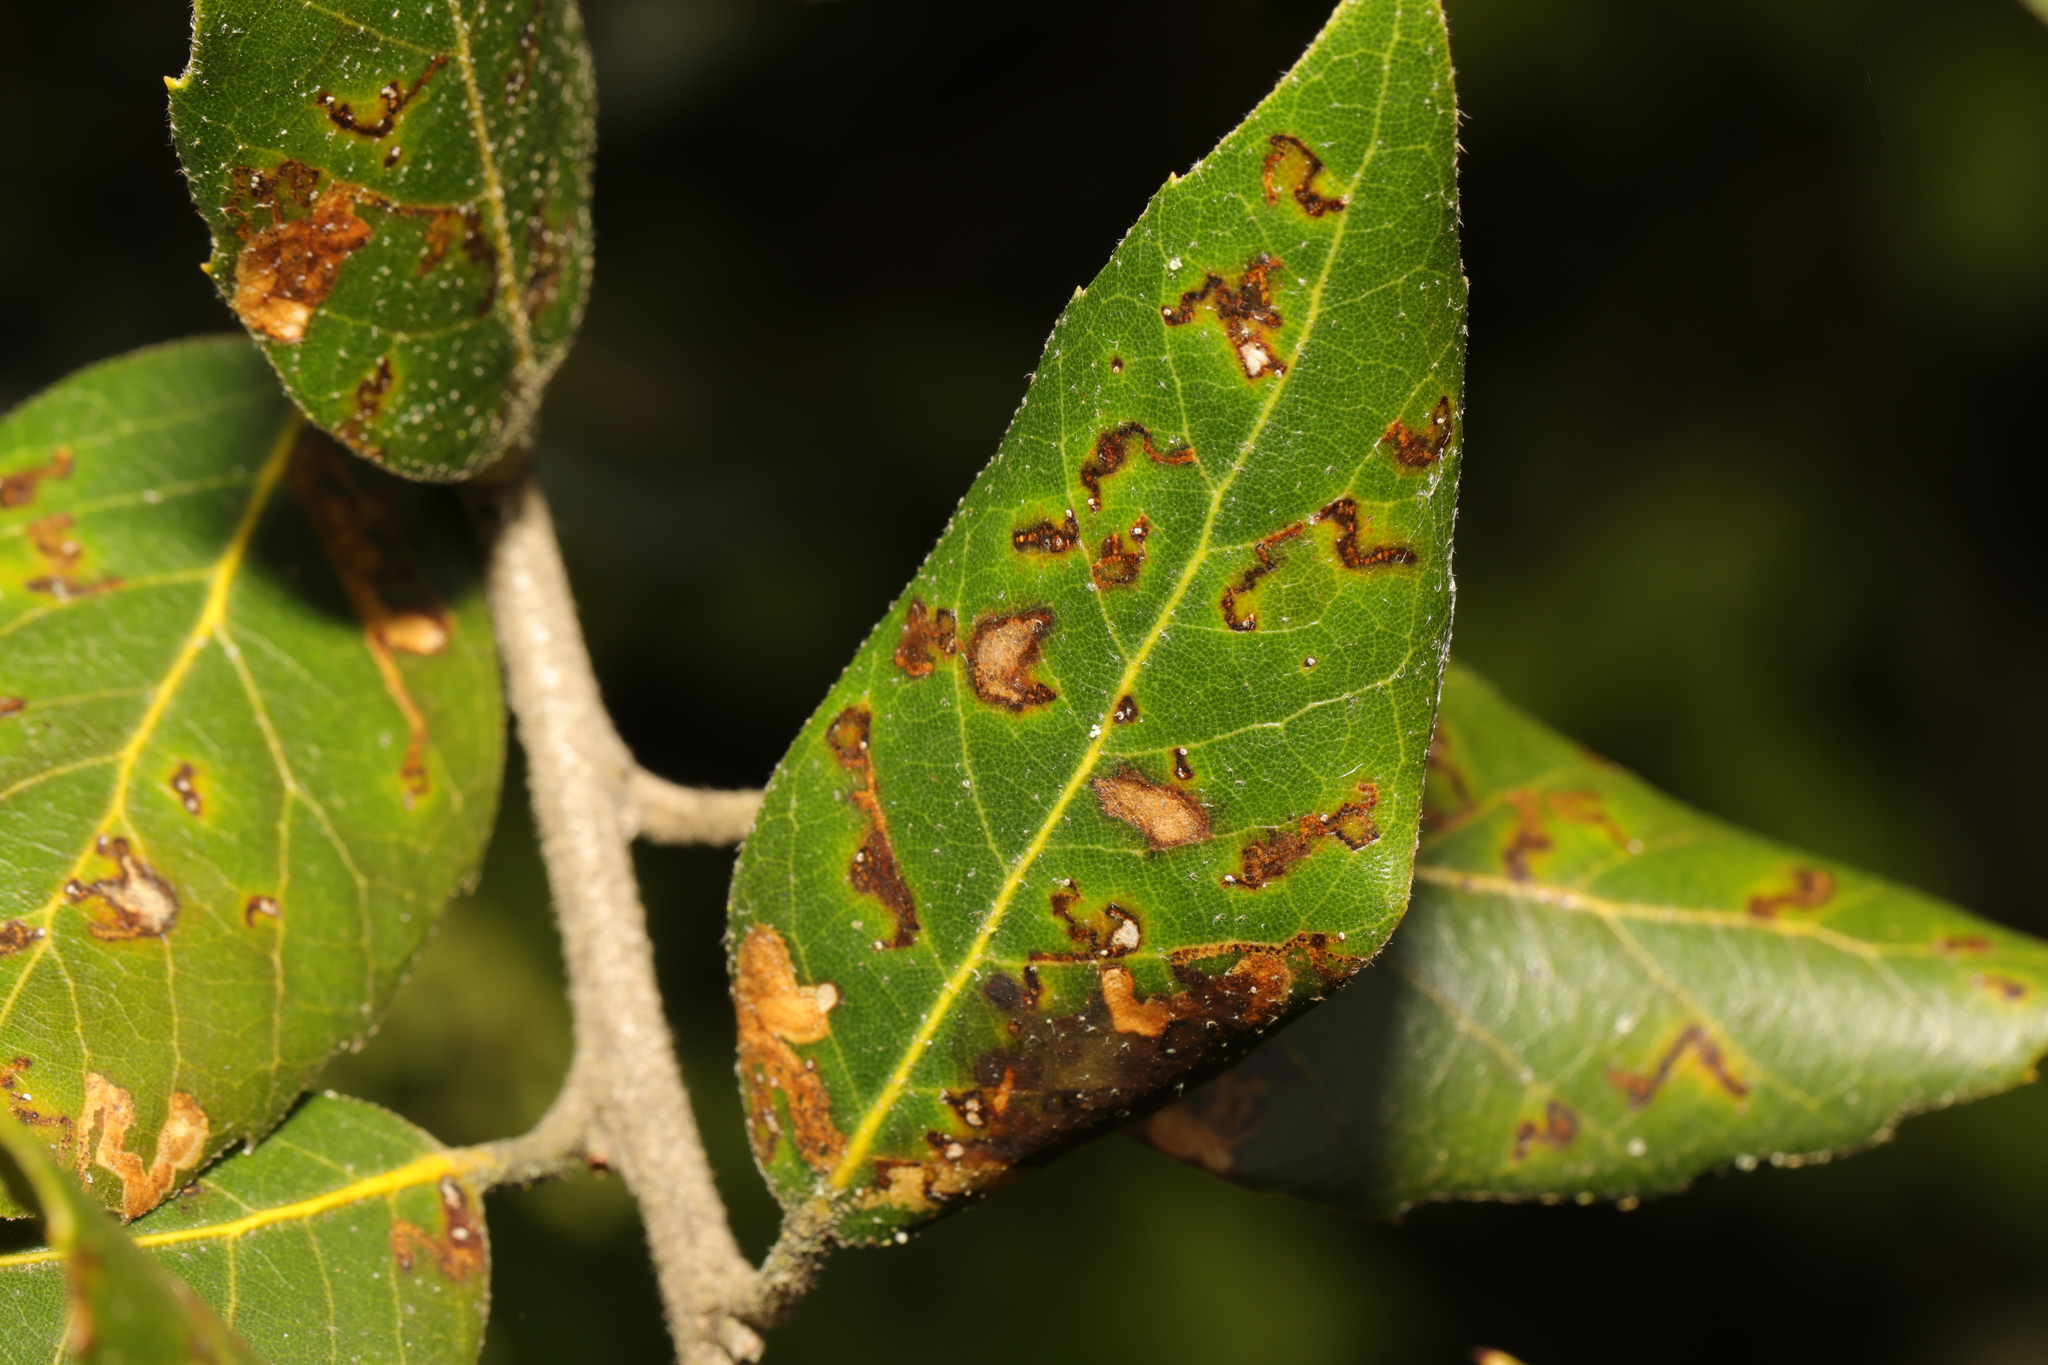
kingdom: Animalia
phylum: Arthropoda
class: Insecta
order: Lepidoptera
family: Nepticulidae
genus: Ectoedemia
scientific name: Ectoedemia heringella
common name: New holm-oak pigmy
